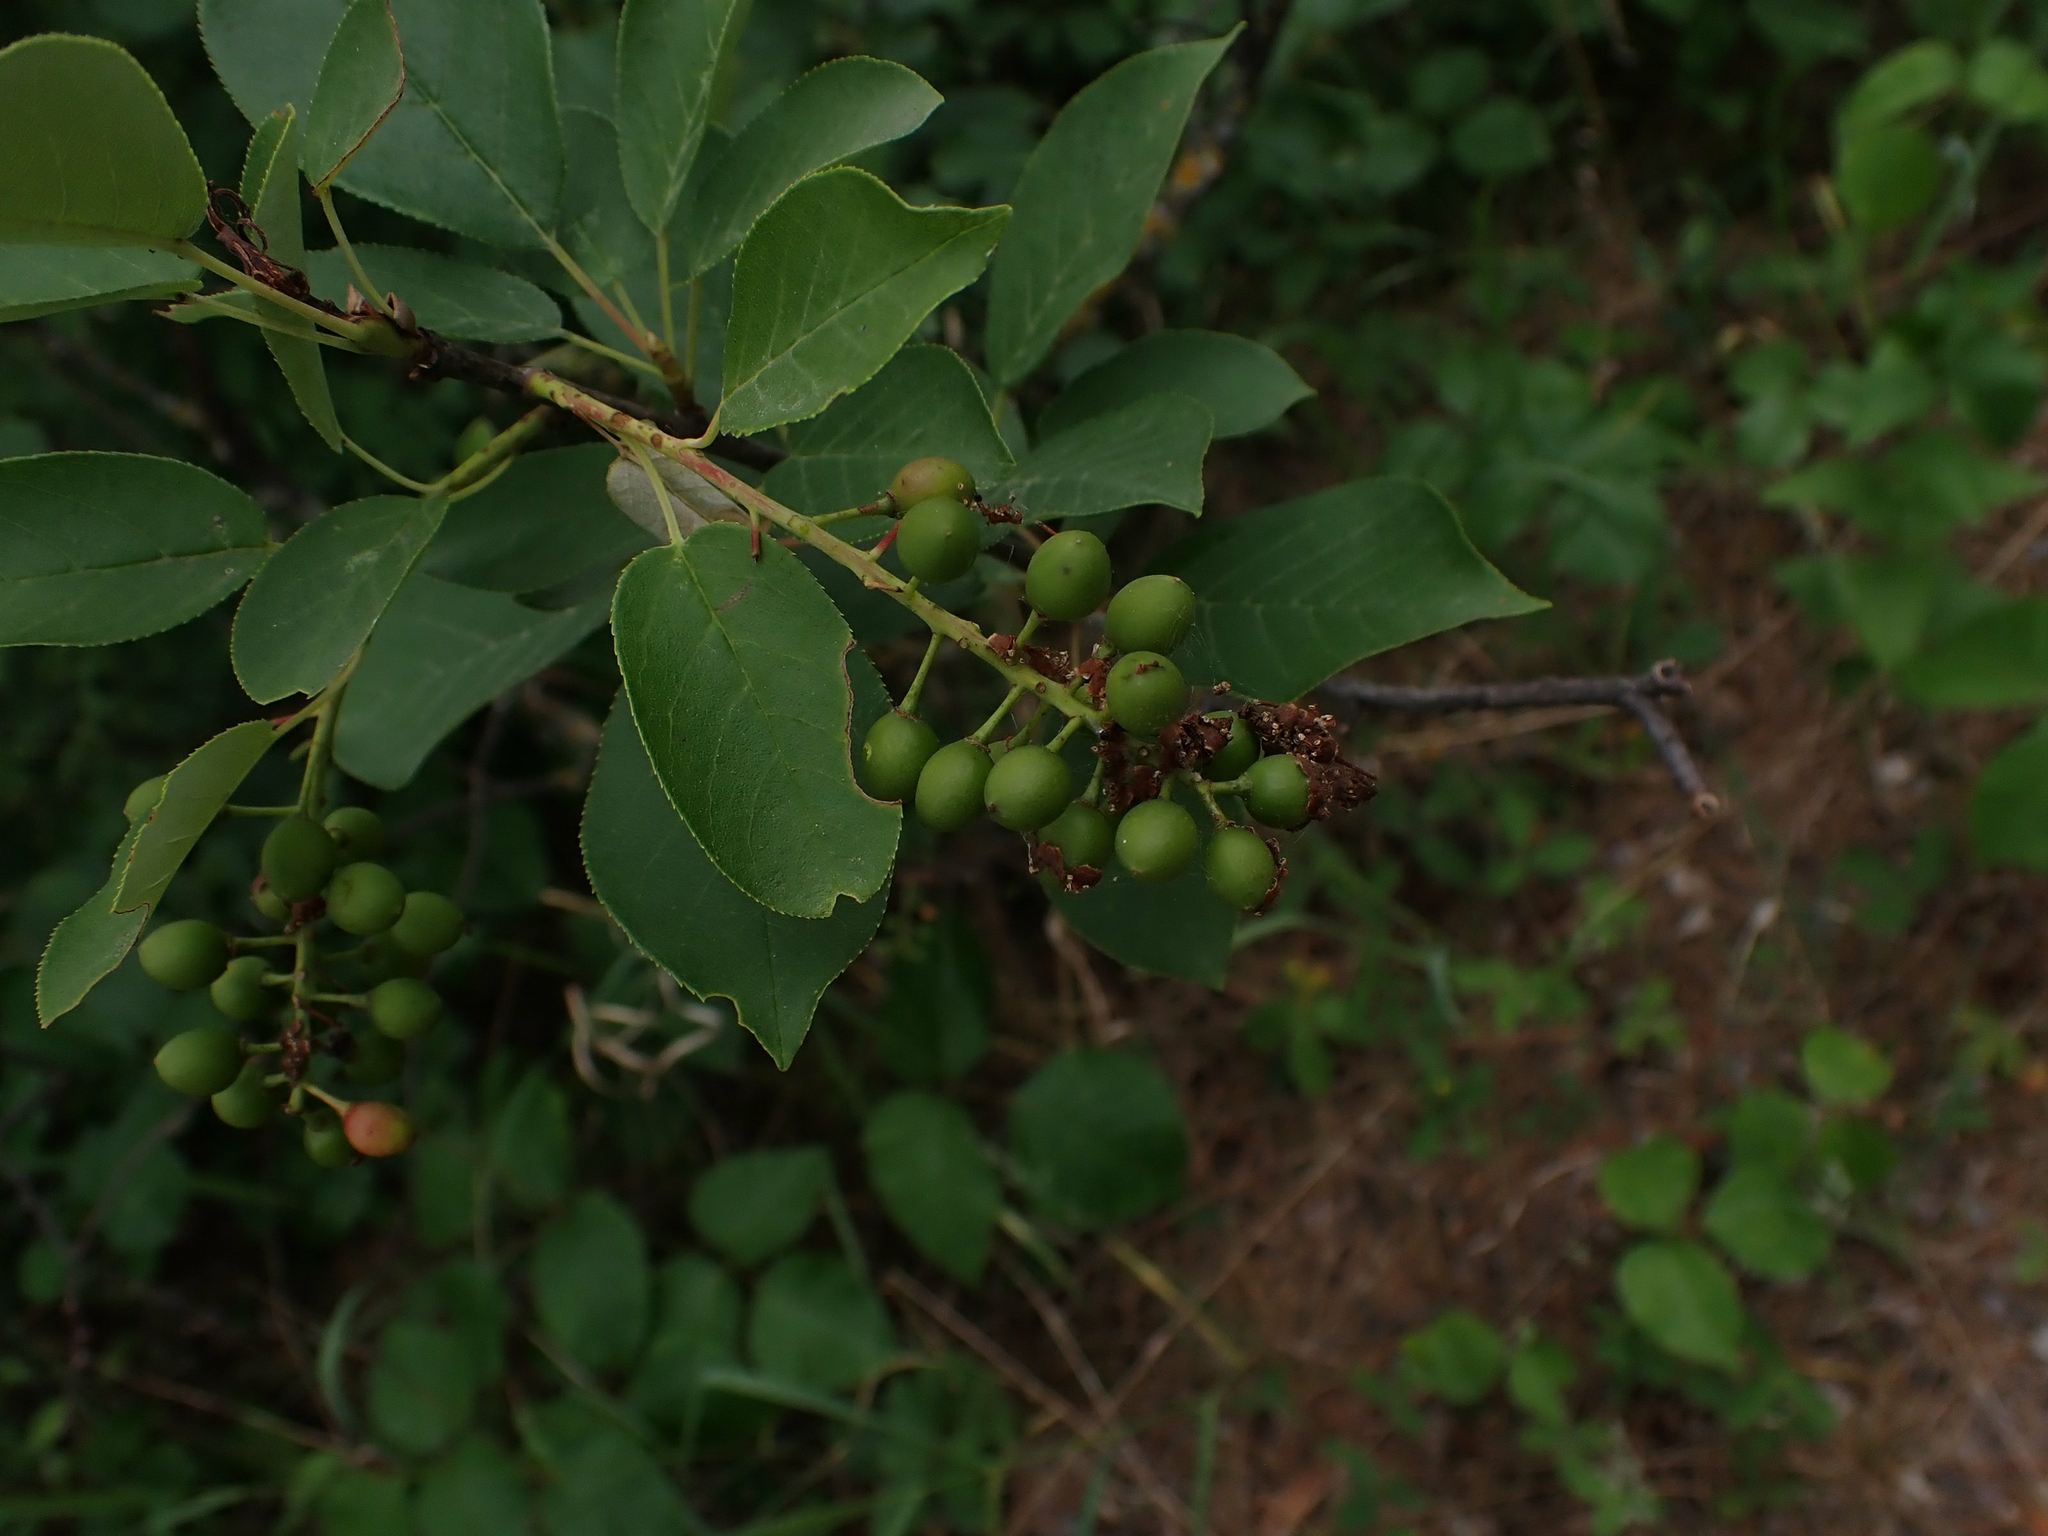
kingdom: Plantae
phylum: Tracheophyta
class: Magnoliopsida
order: Rosales
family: Rosaceae
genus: Prunus
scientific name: Prunus virginiana
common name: Chokecherry
